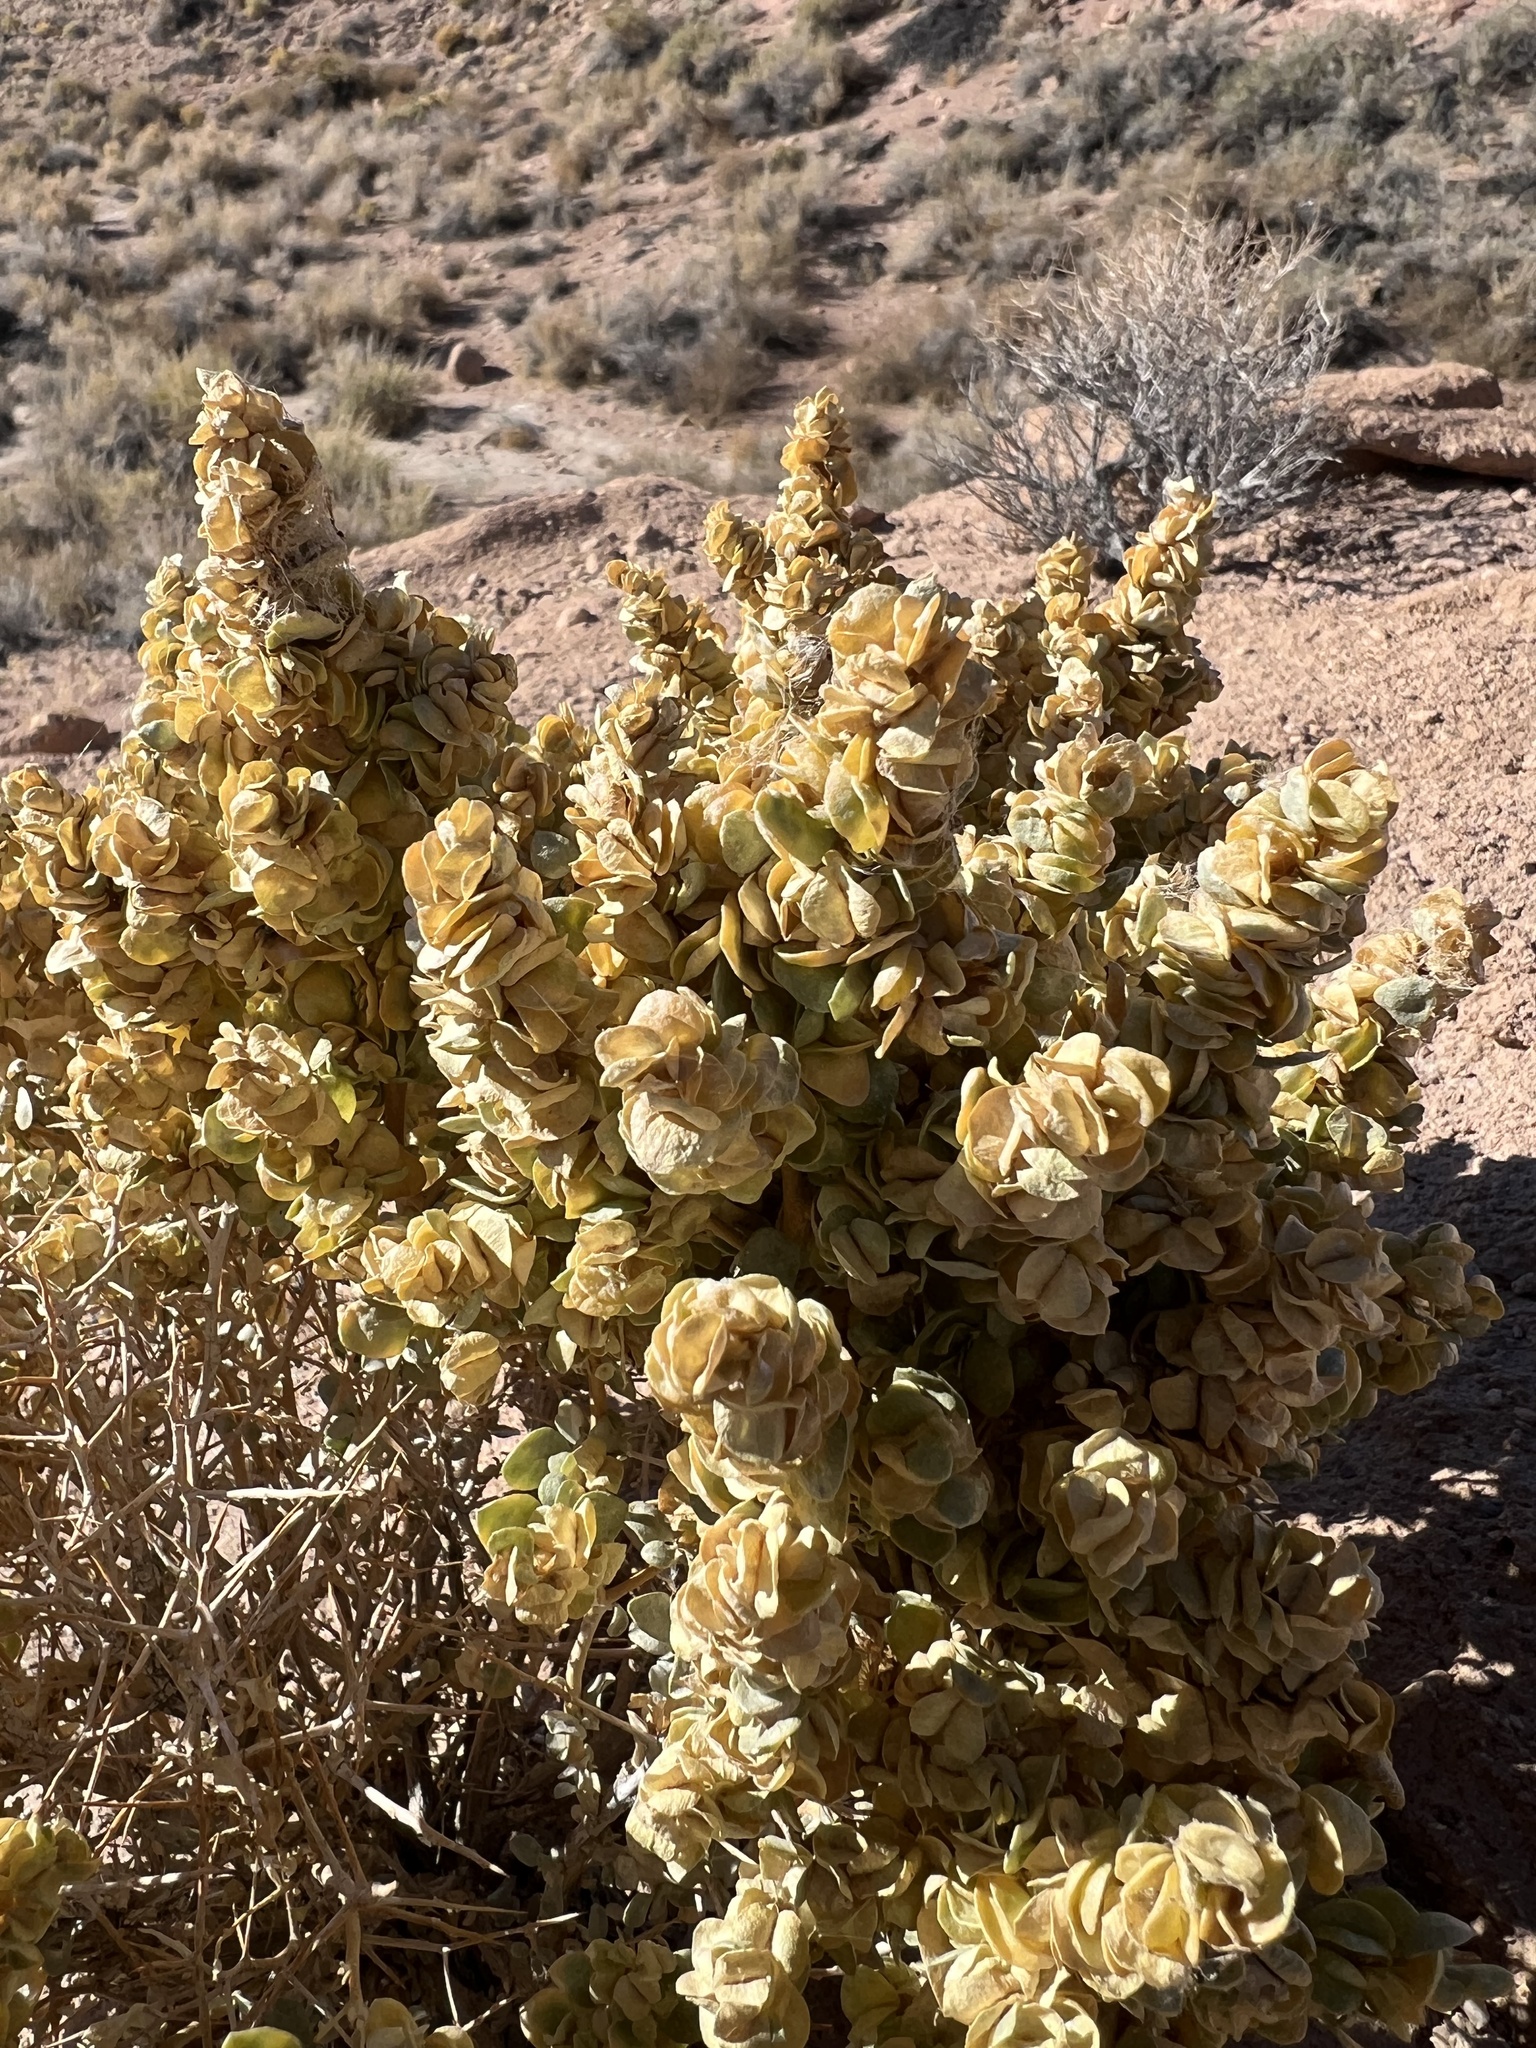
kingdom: Plantae
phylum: Tracheophyta
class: Magnoliopsida
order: Caryophyllales
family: Amaranthaceae
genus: Atriplex
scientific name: Atriplex confertifolia
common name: Shadscale
